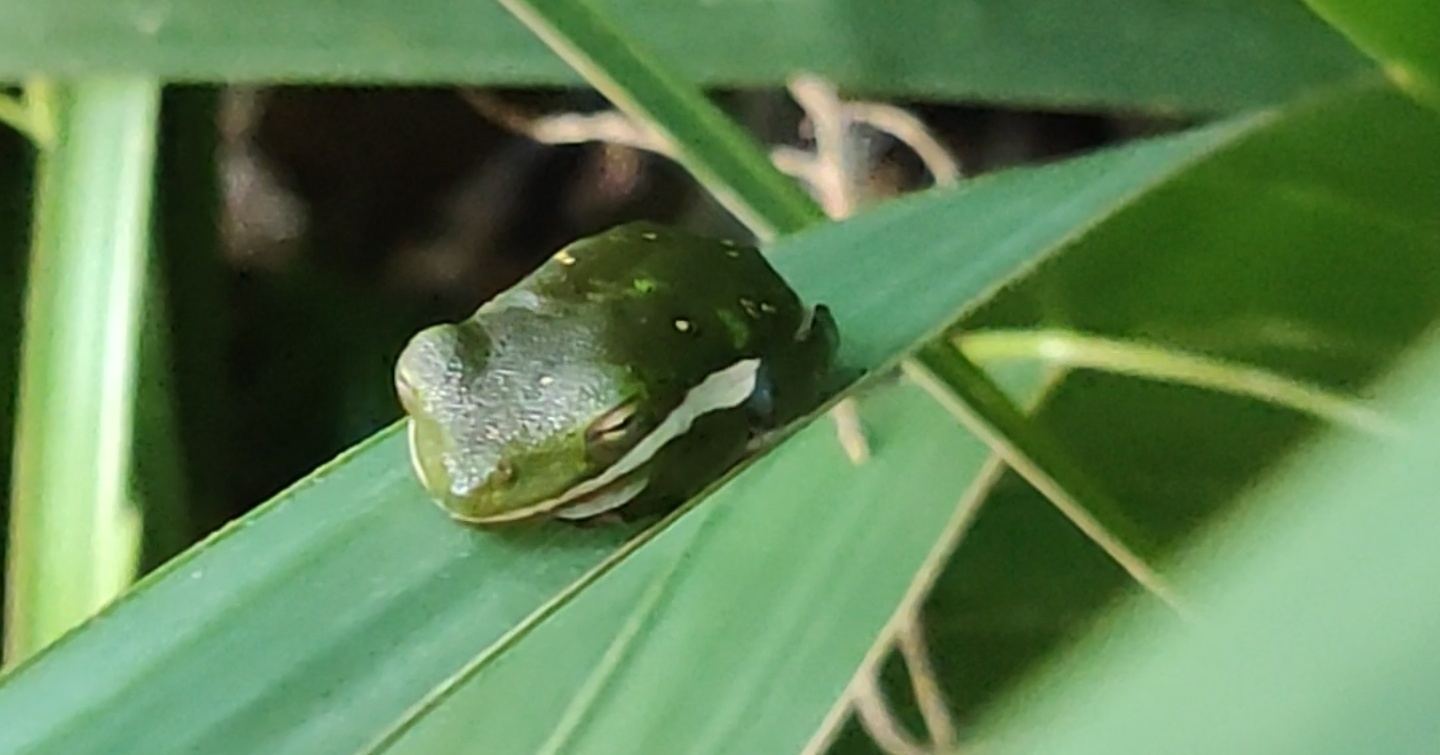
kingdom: Animalia
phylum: Chordata
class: Amphibia
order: Anura
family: Hylidae
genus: Dryophytes
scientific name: Dryophytes cinereus
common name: Green treefrog
